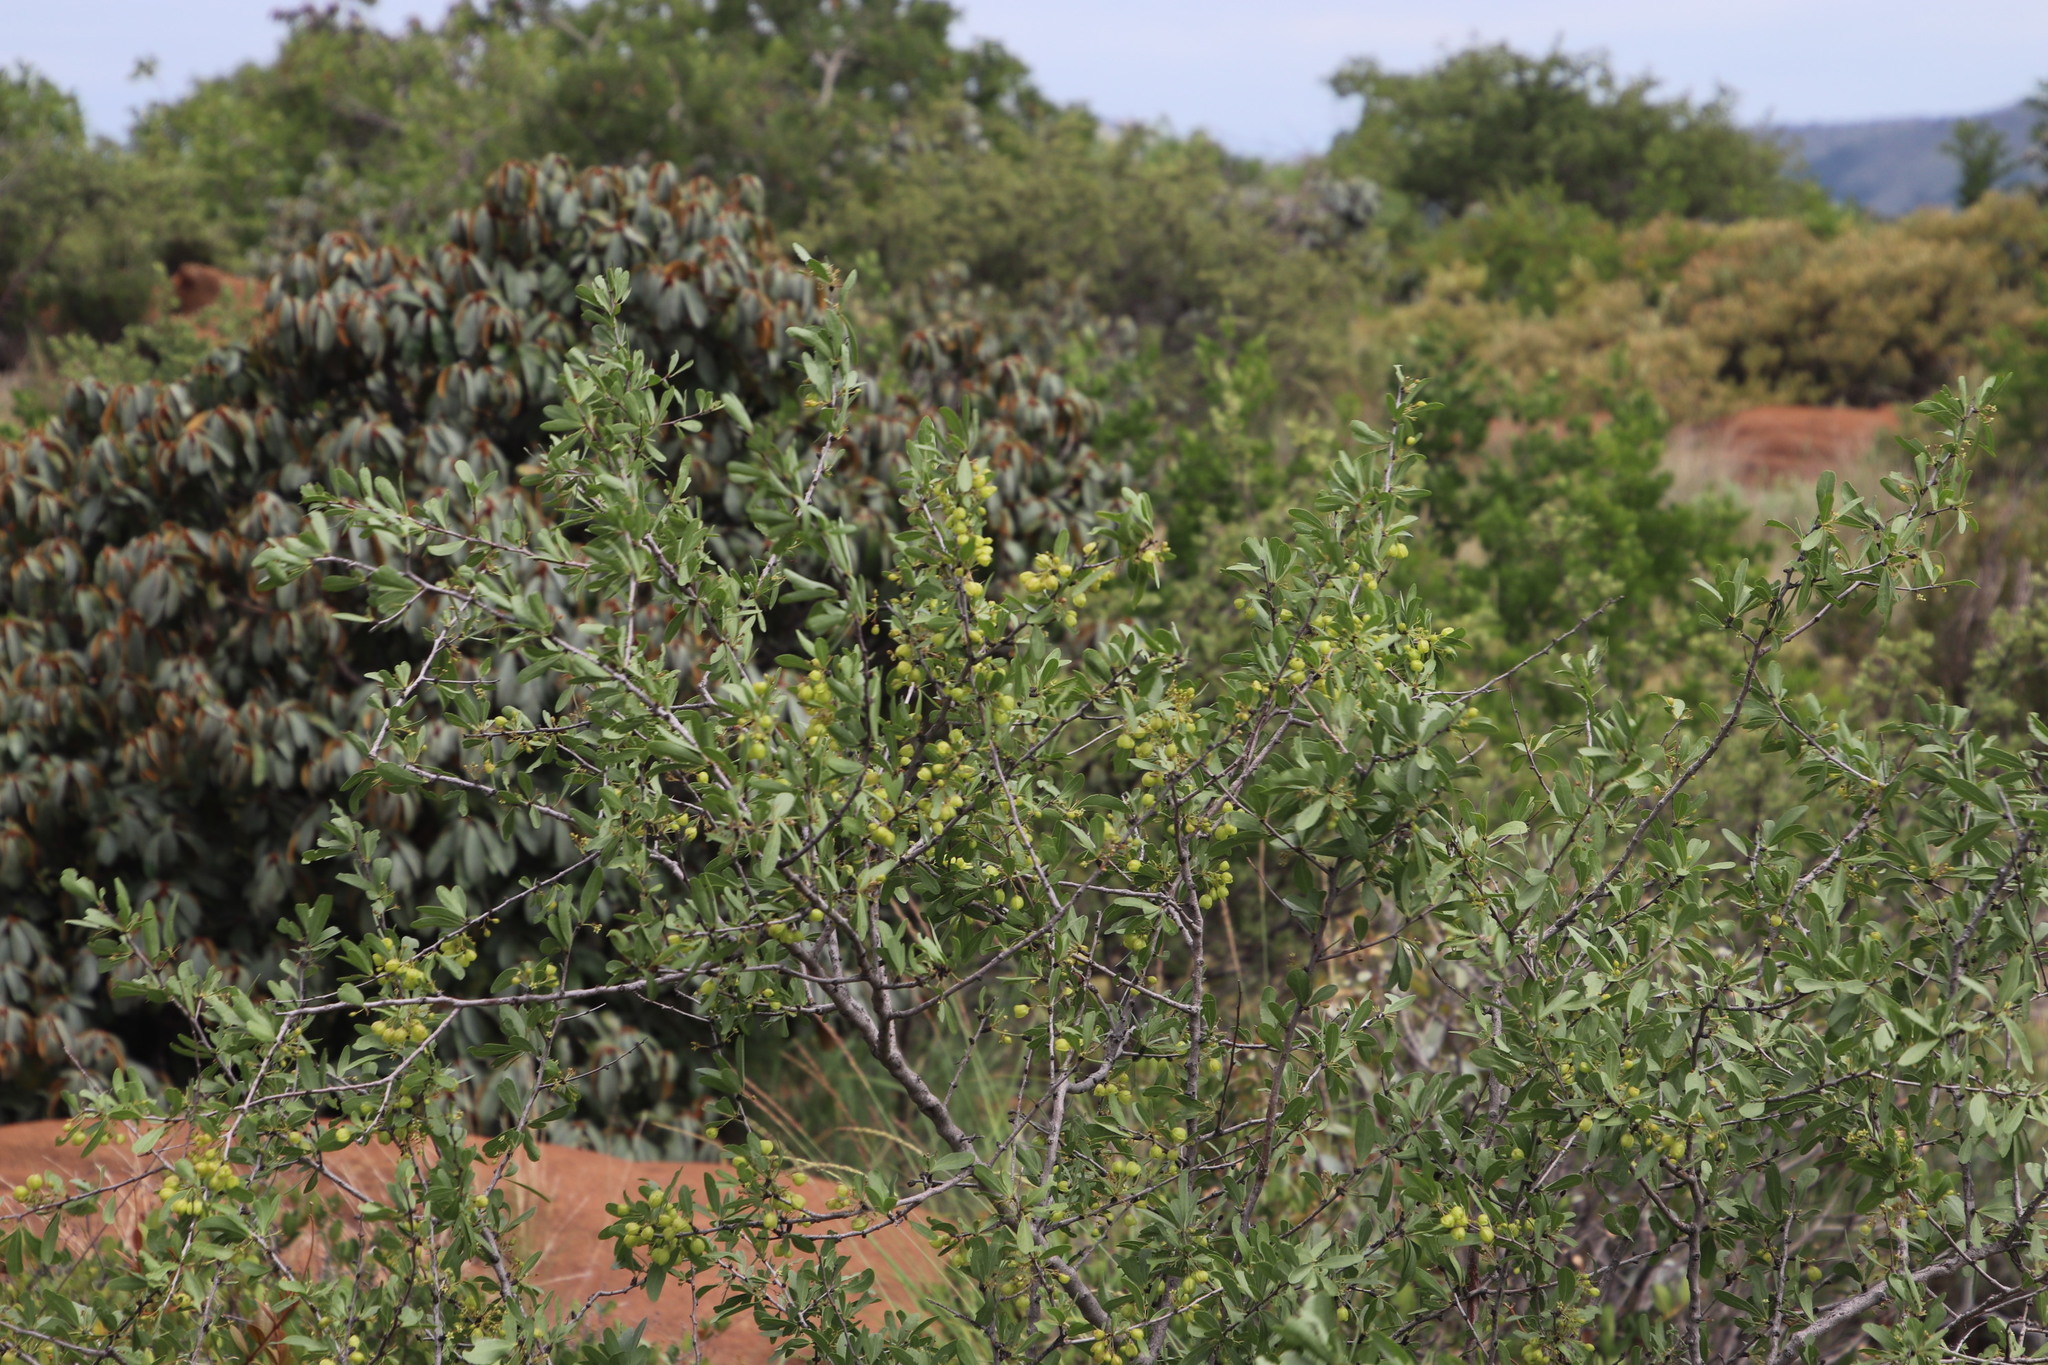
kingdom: Plantae
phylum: Tracheophyta
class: Magnoliopsida
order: Celastrales
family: Celastraceae
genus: Gymnosporia
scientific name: Gymnosporia tenuispina
